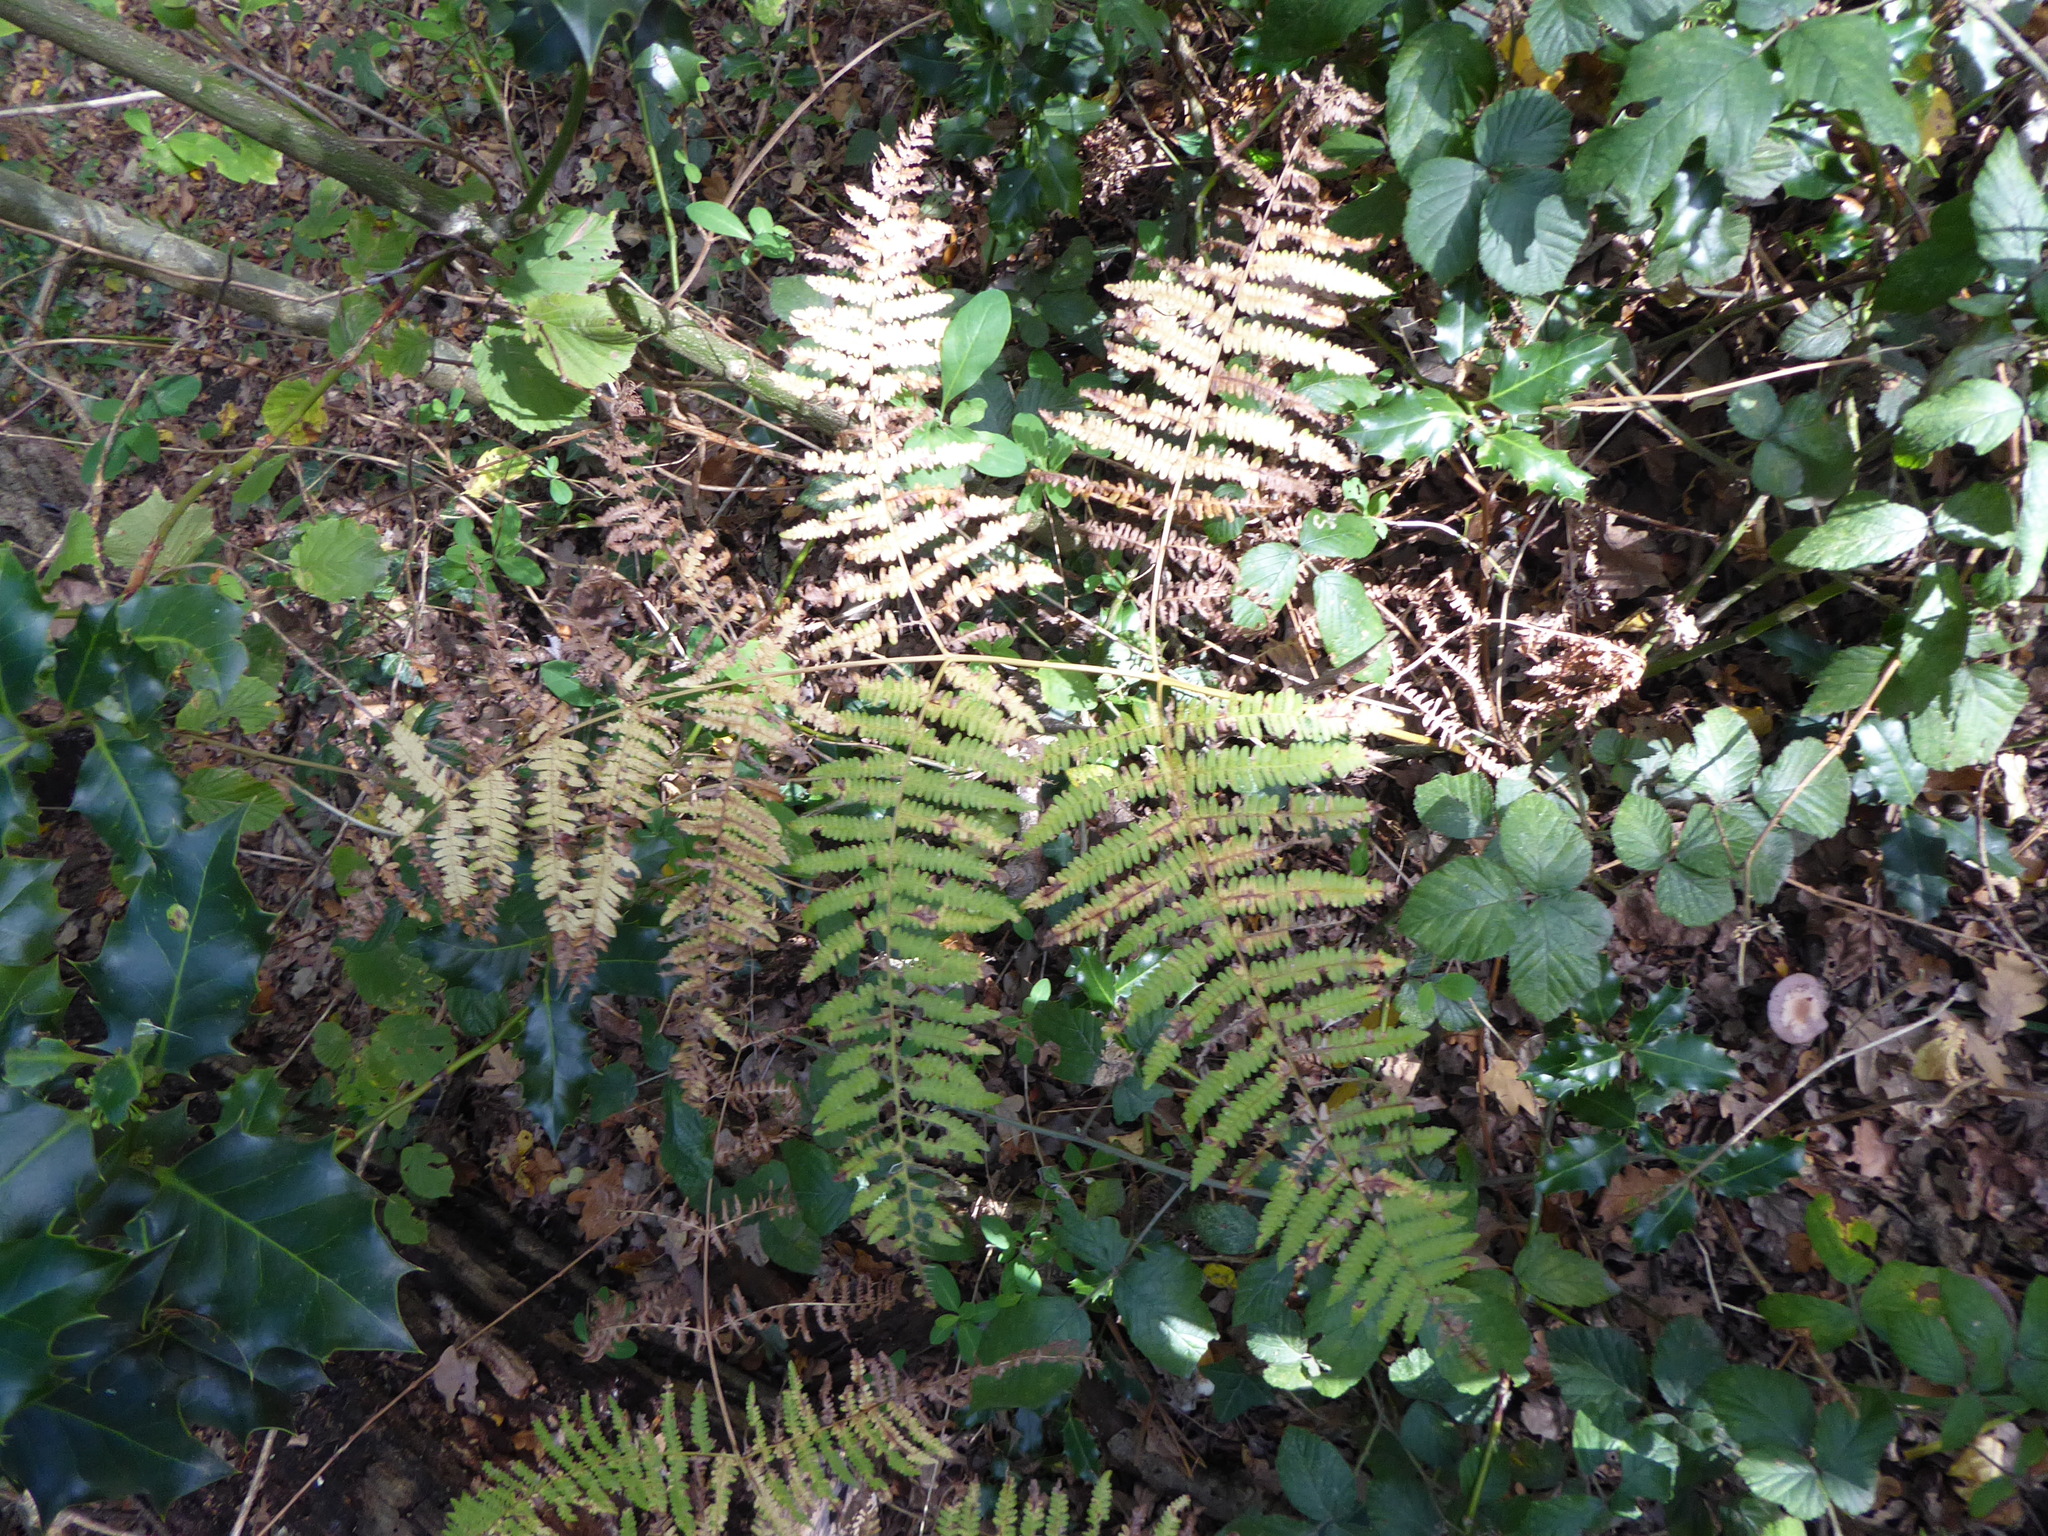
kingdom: Plantae
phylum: Tracheophyta
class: Polypodiopsida
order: Polypodiales
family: Dennstaedtiaceae
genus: Pteridium
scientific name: Pteridium aquilinum
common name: Bracken
